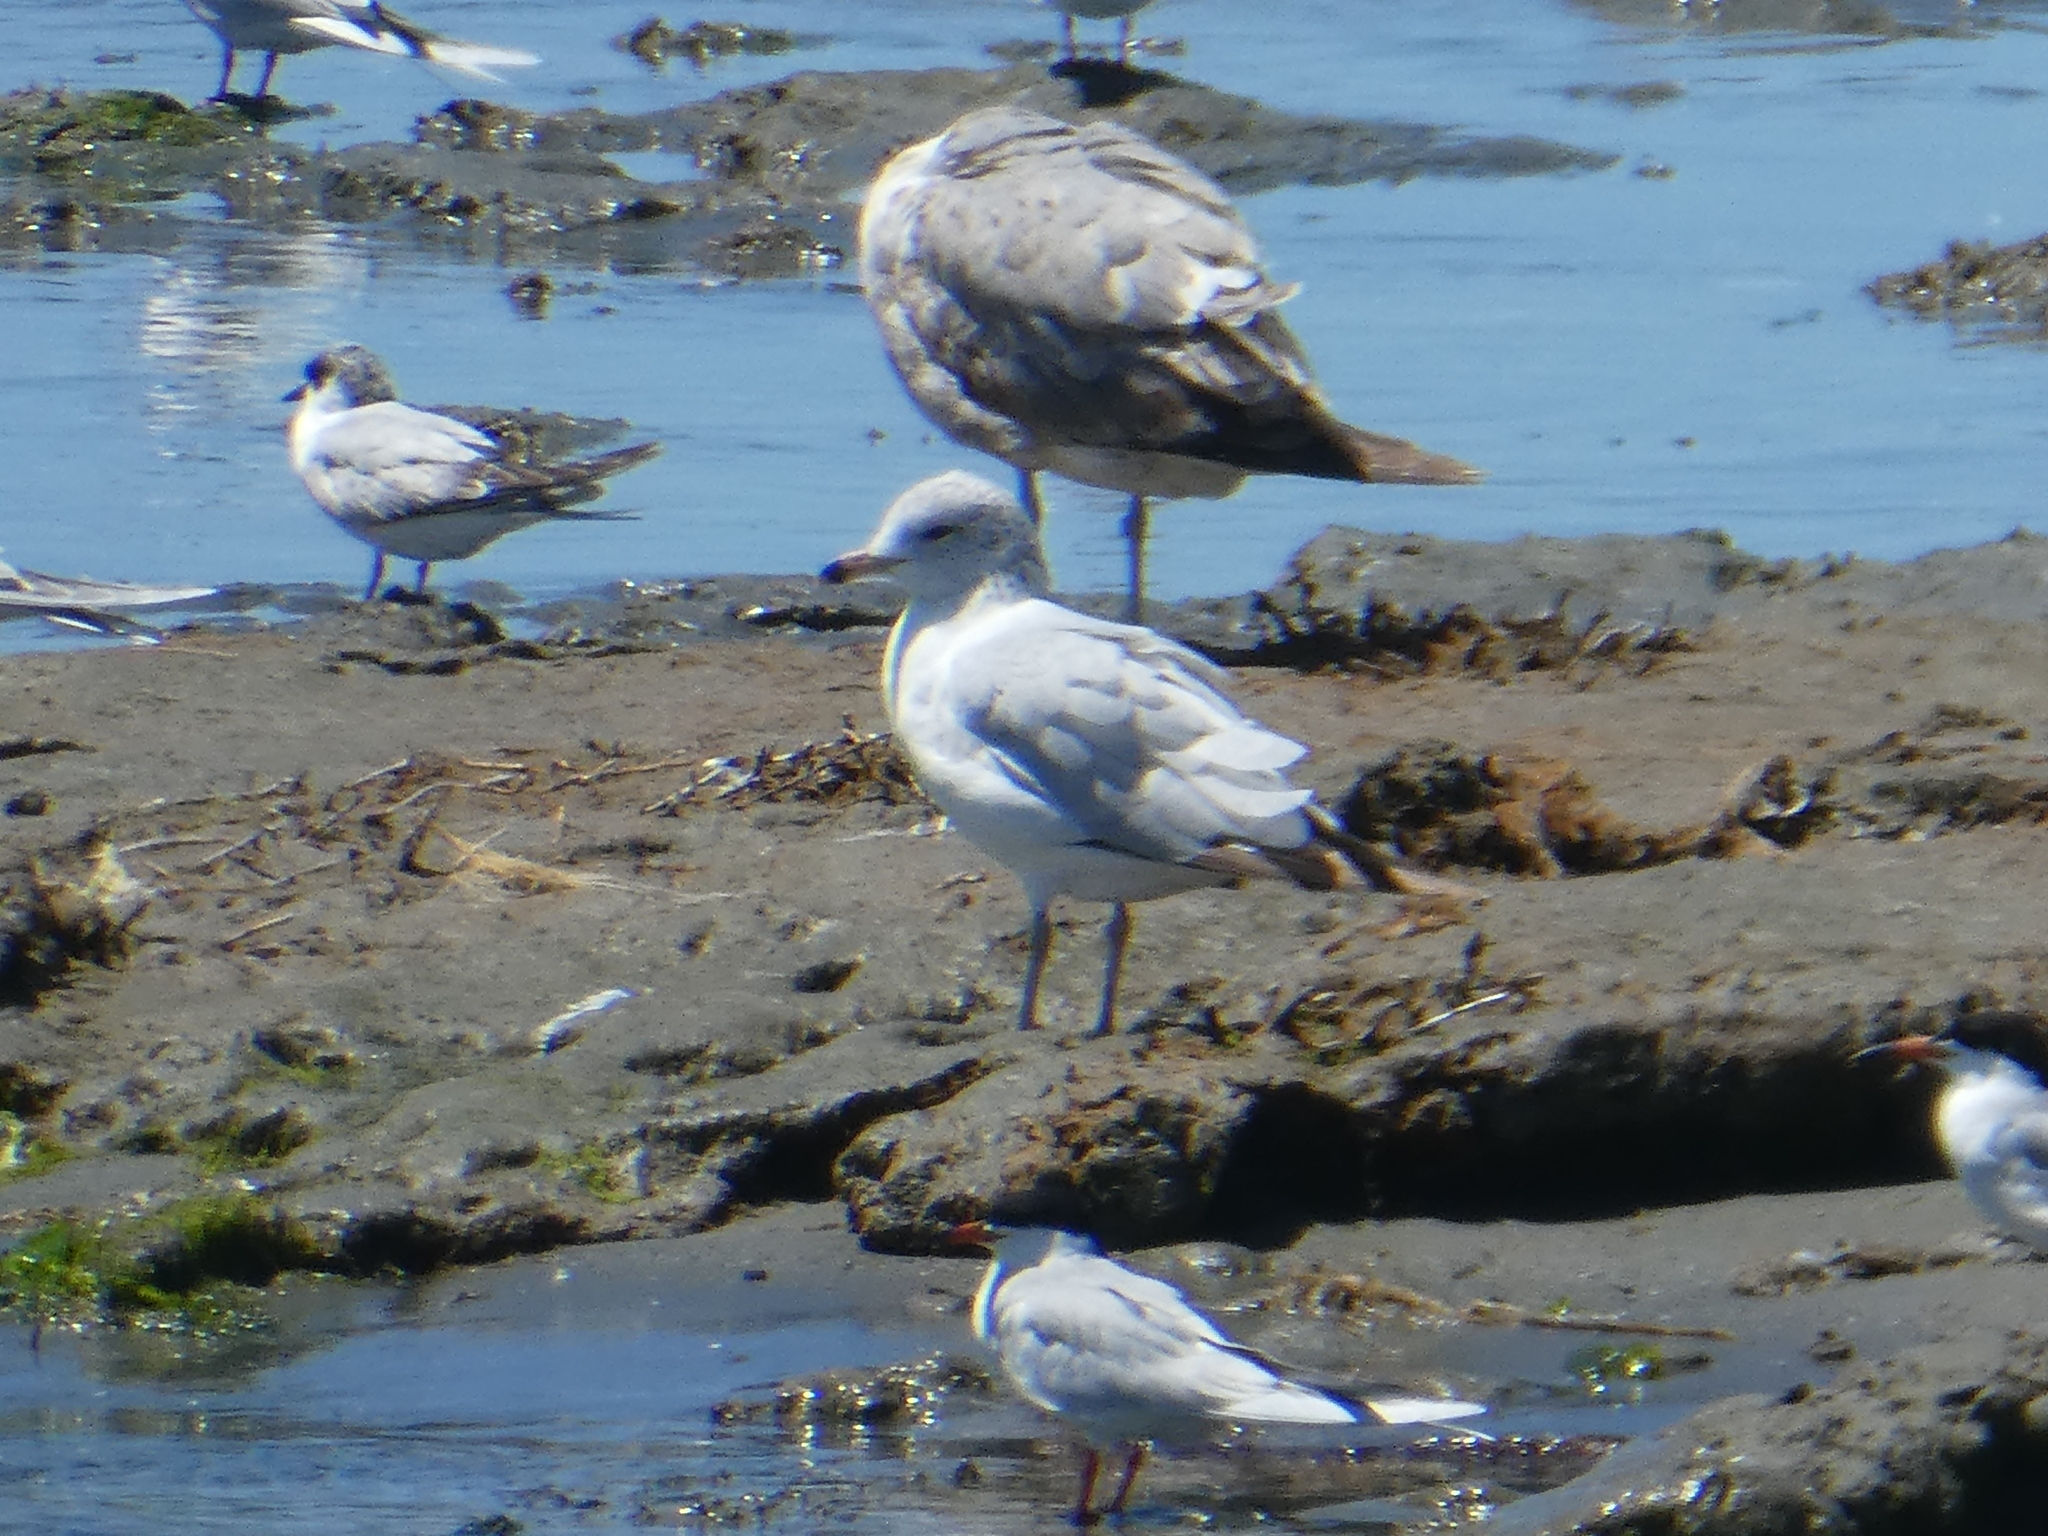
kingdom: Animalia
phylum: Chordata
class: Aves
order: Charadriiformes
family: Laridae
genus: Larus
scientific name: Larus delawarensis
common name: Ring-billed gull
